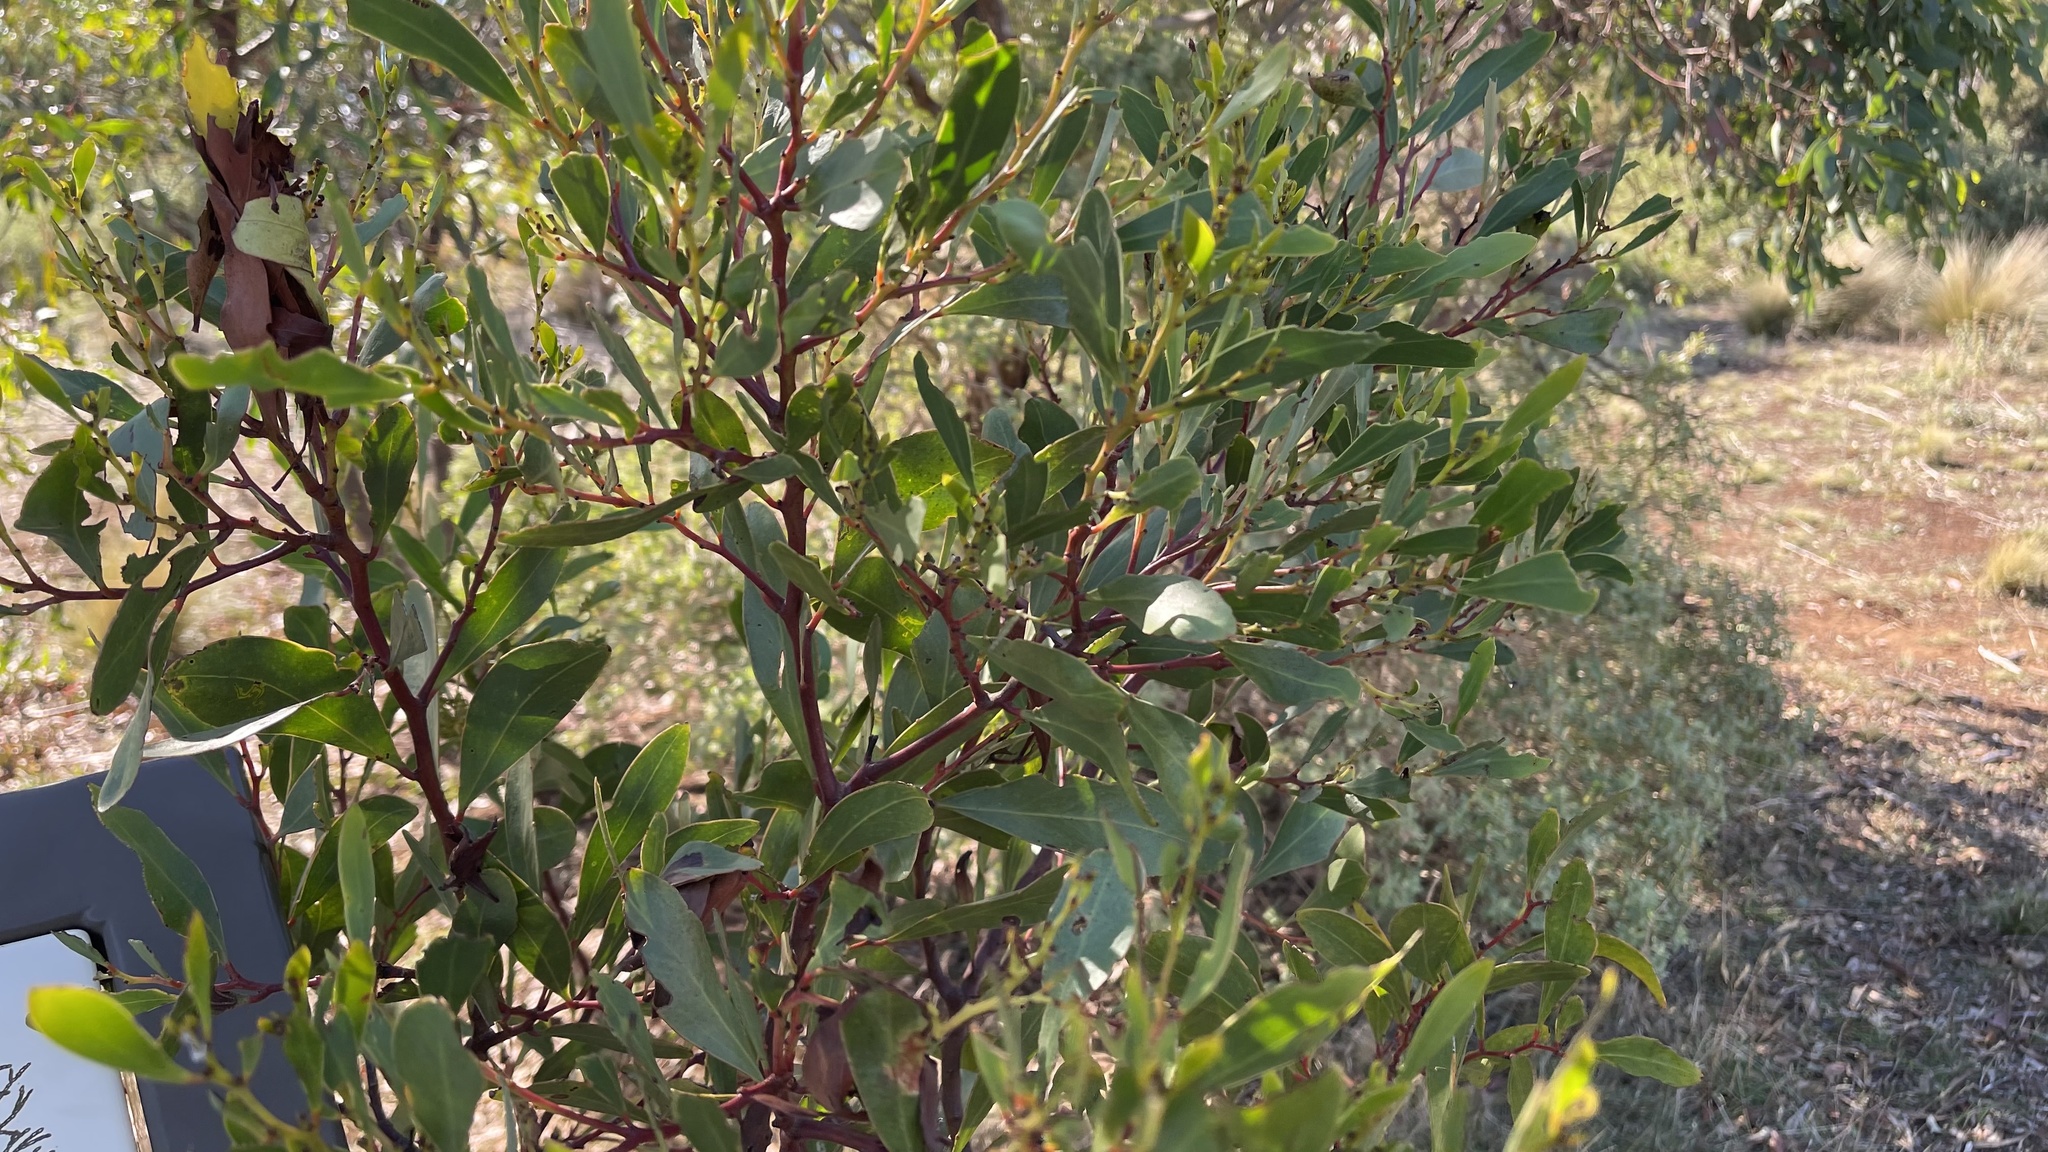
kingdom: Plantae
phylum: Tracheophyta
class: Magnoliopsida
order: Fabales
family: Fabaceae
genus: Acacia
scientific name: Acacia myrtifolia
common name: Myrtle wattle
